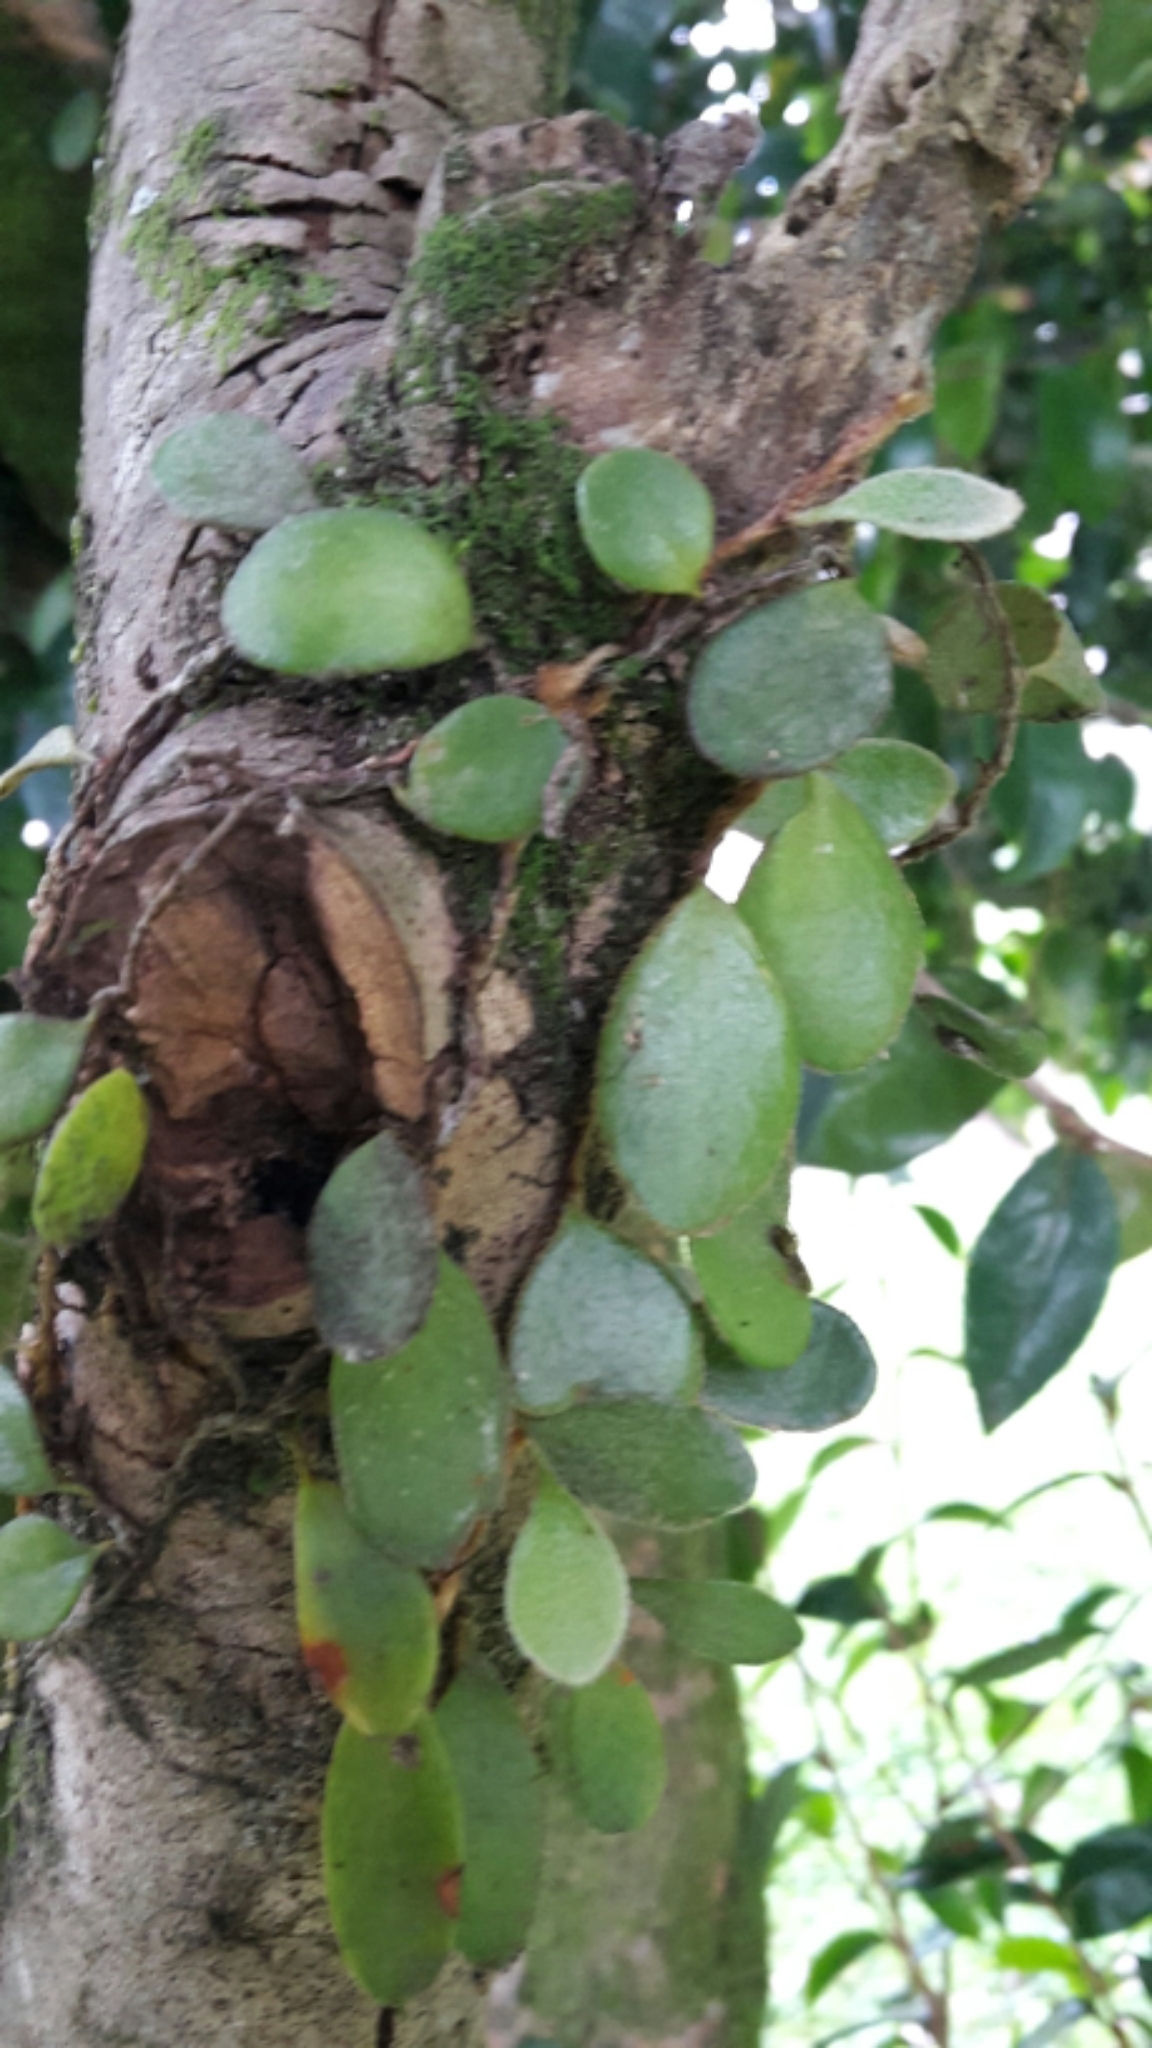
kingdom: Plantae
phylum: Tracheophyta
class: Polypodiopsida
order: Polypodiales
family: Polypodiaceae
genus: Pyrrosia
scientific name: Pyrrosia eleagnifolia
